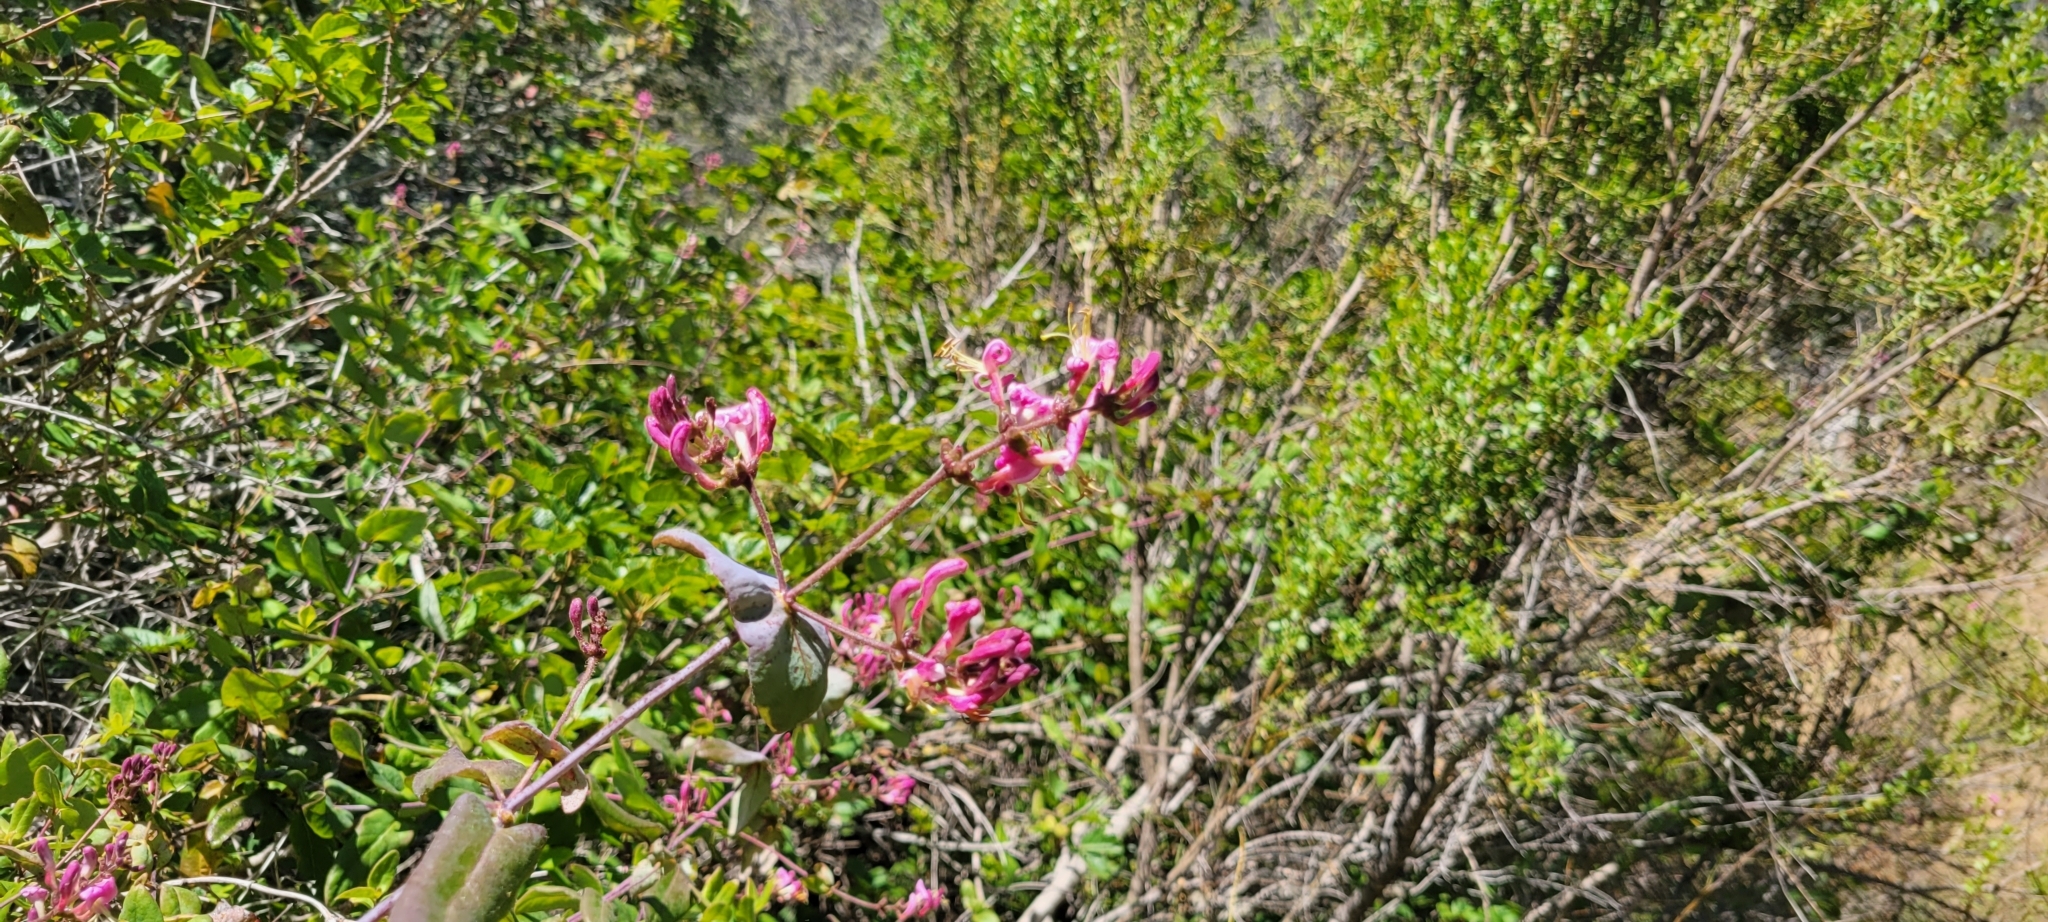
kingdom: Plantae
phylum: Tracheophyta
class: Magnoliopsida
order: Dipsacales
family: Caprifoliaceae
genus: Lonicera
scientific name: Lonicera hispidula
